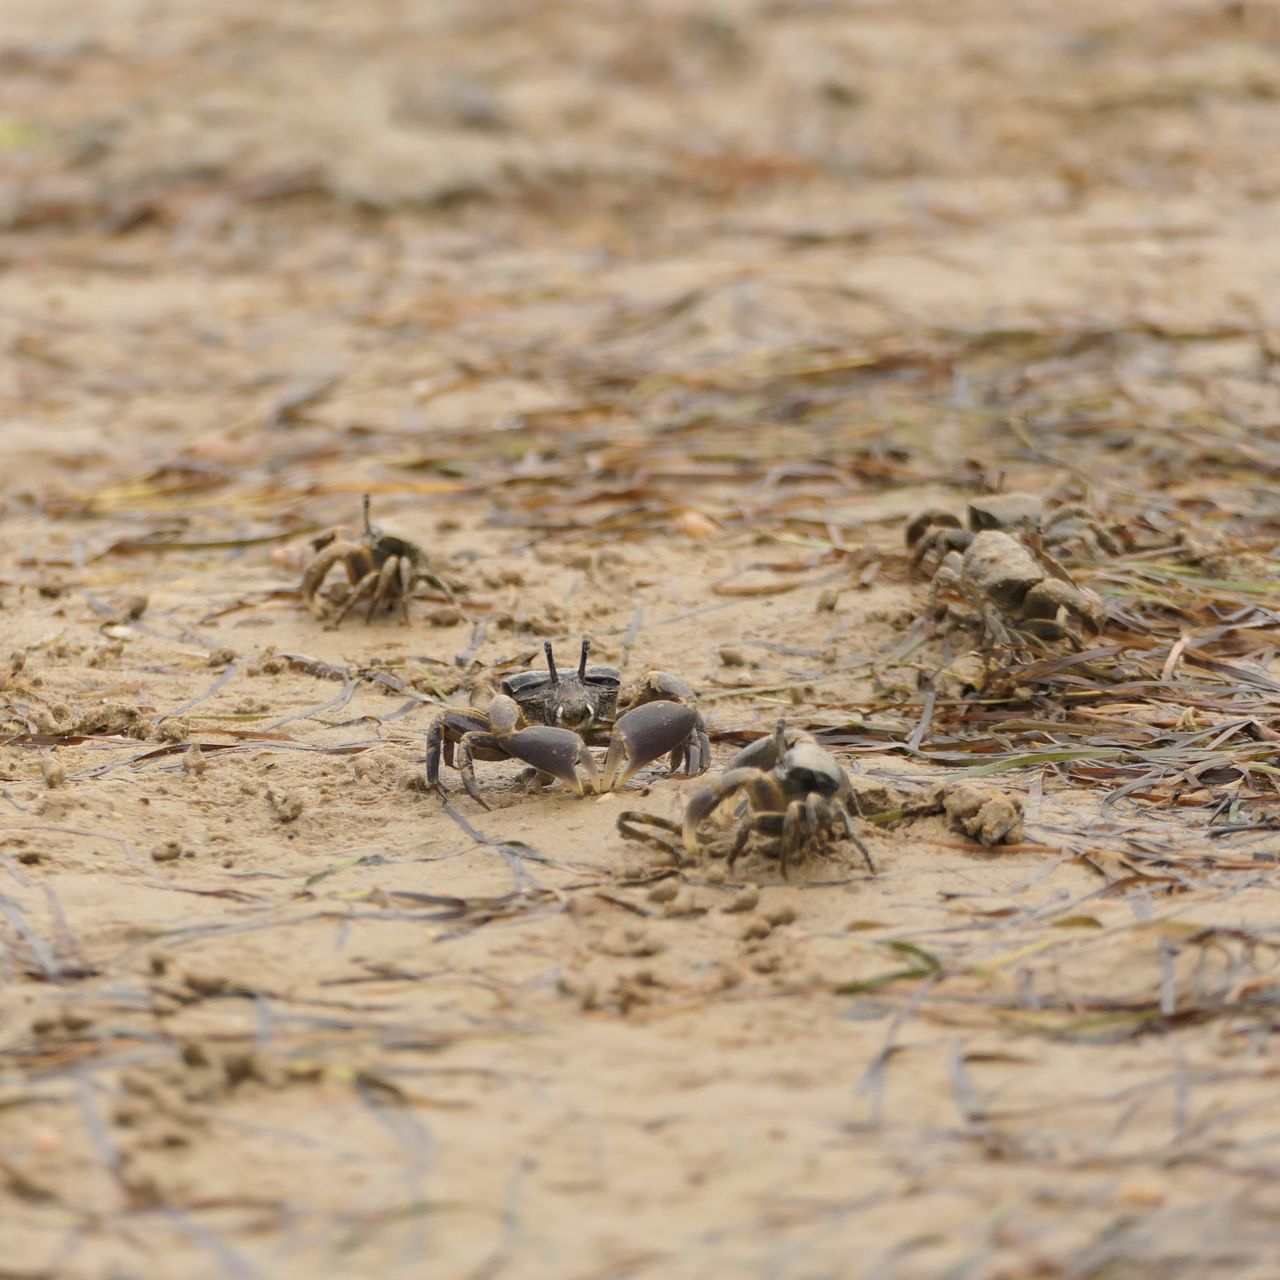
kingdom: Animalia
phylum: Arthropoda
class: Malacostraca
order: Decapoda
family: Heloeciidae
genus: Heloecius
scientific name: Heloecius cordiformis
